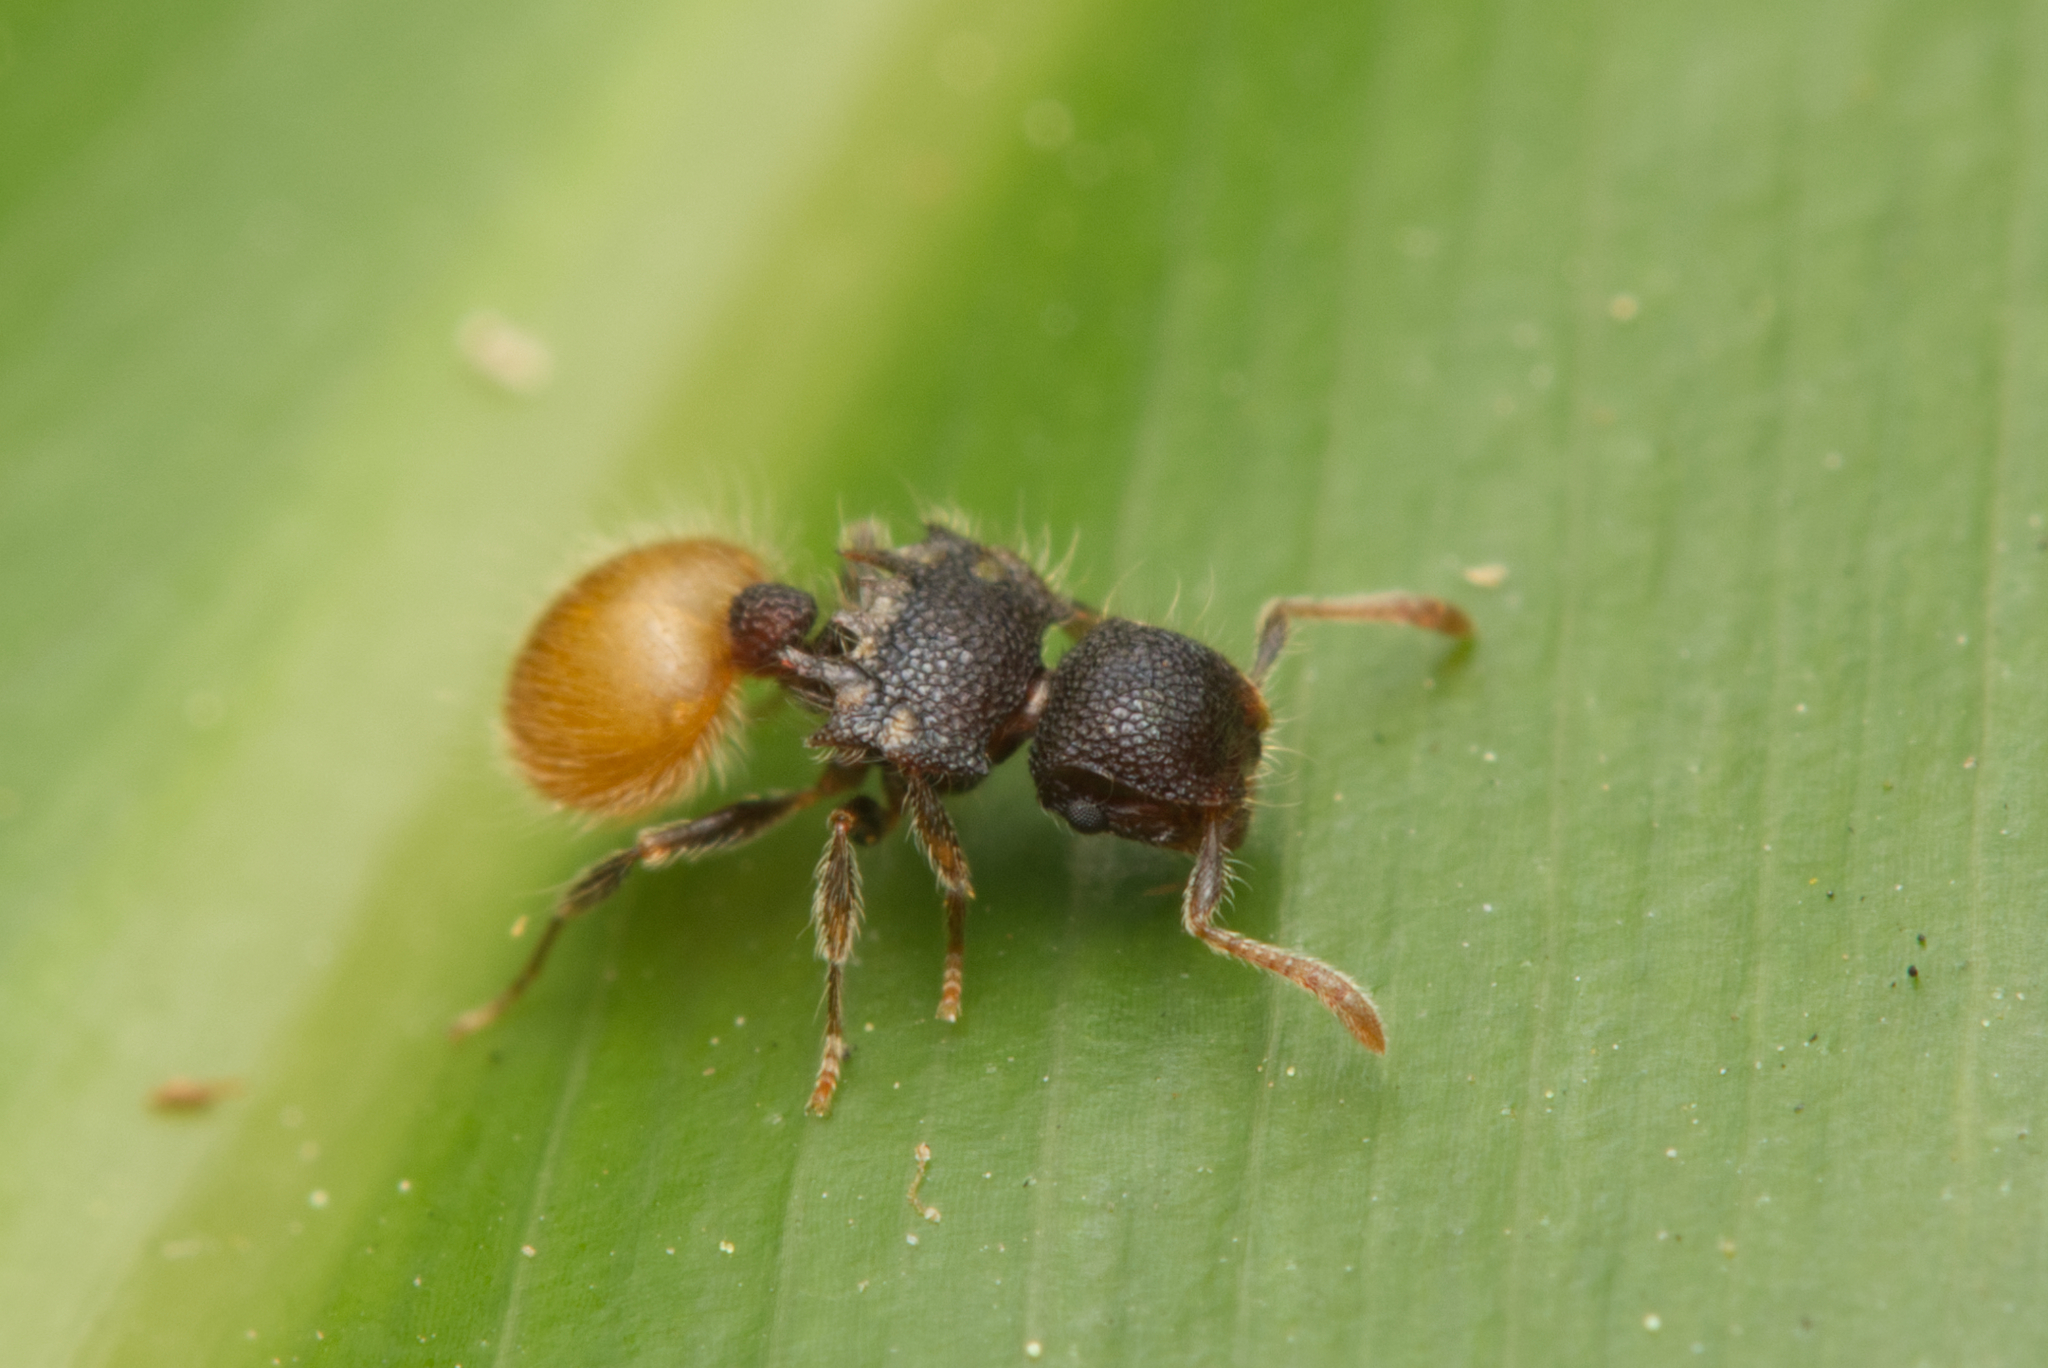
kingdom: Animalia
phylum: Arthropoda
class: Insecta
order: Hymenoptera
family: Formicidae
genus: Meranoplus
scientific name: Meranoplus hirsutus
